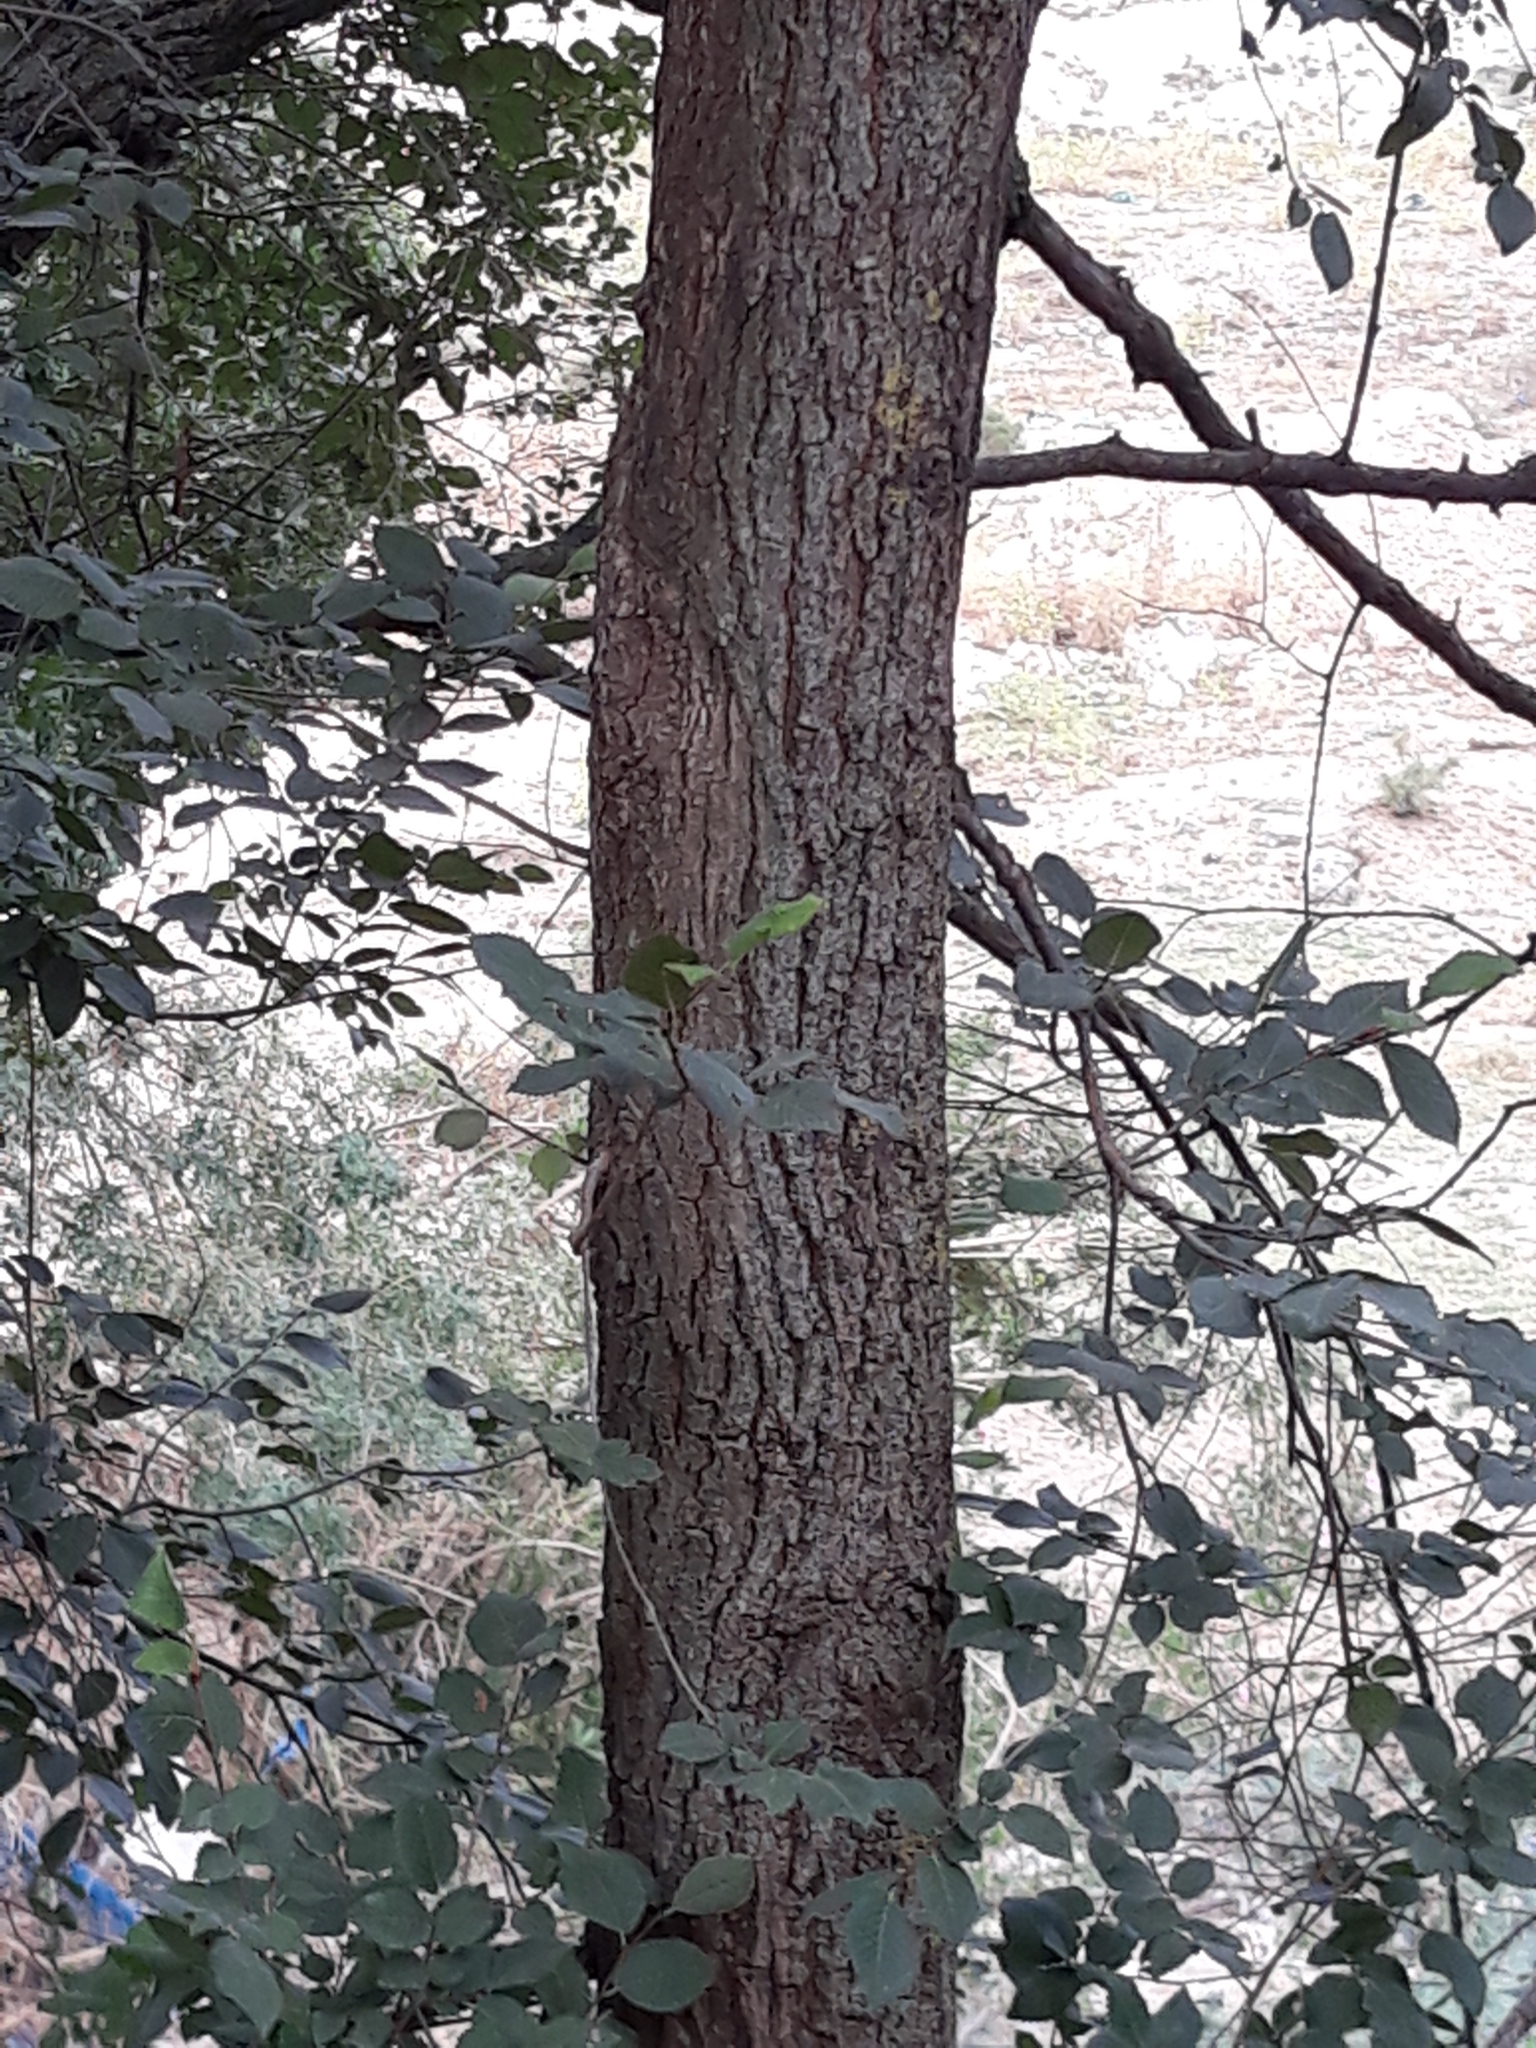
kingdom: Plantae
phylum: Tracheophyta
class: Magnoliopsida
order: Rosales
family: Ulmaceae
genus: Ulmus
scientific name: Ulmus minor
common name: Small-leaved elm
